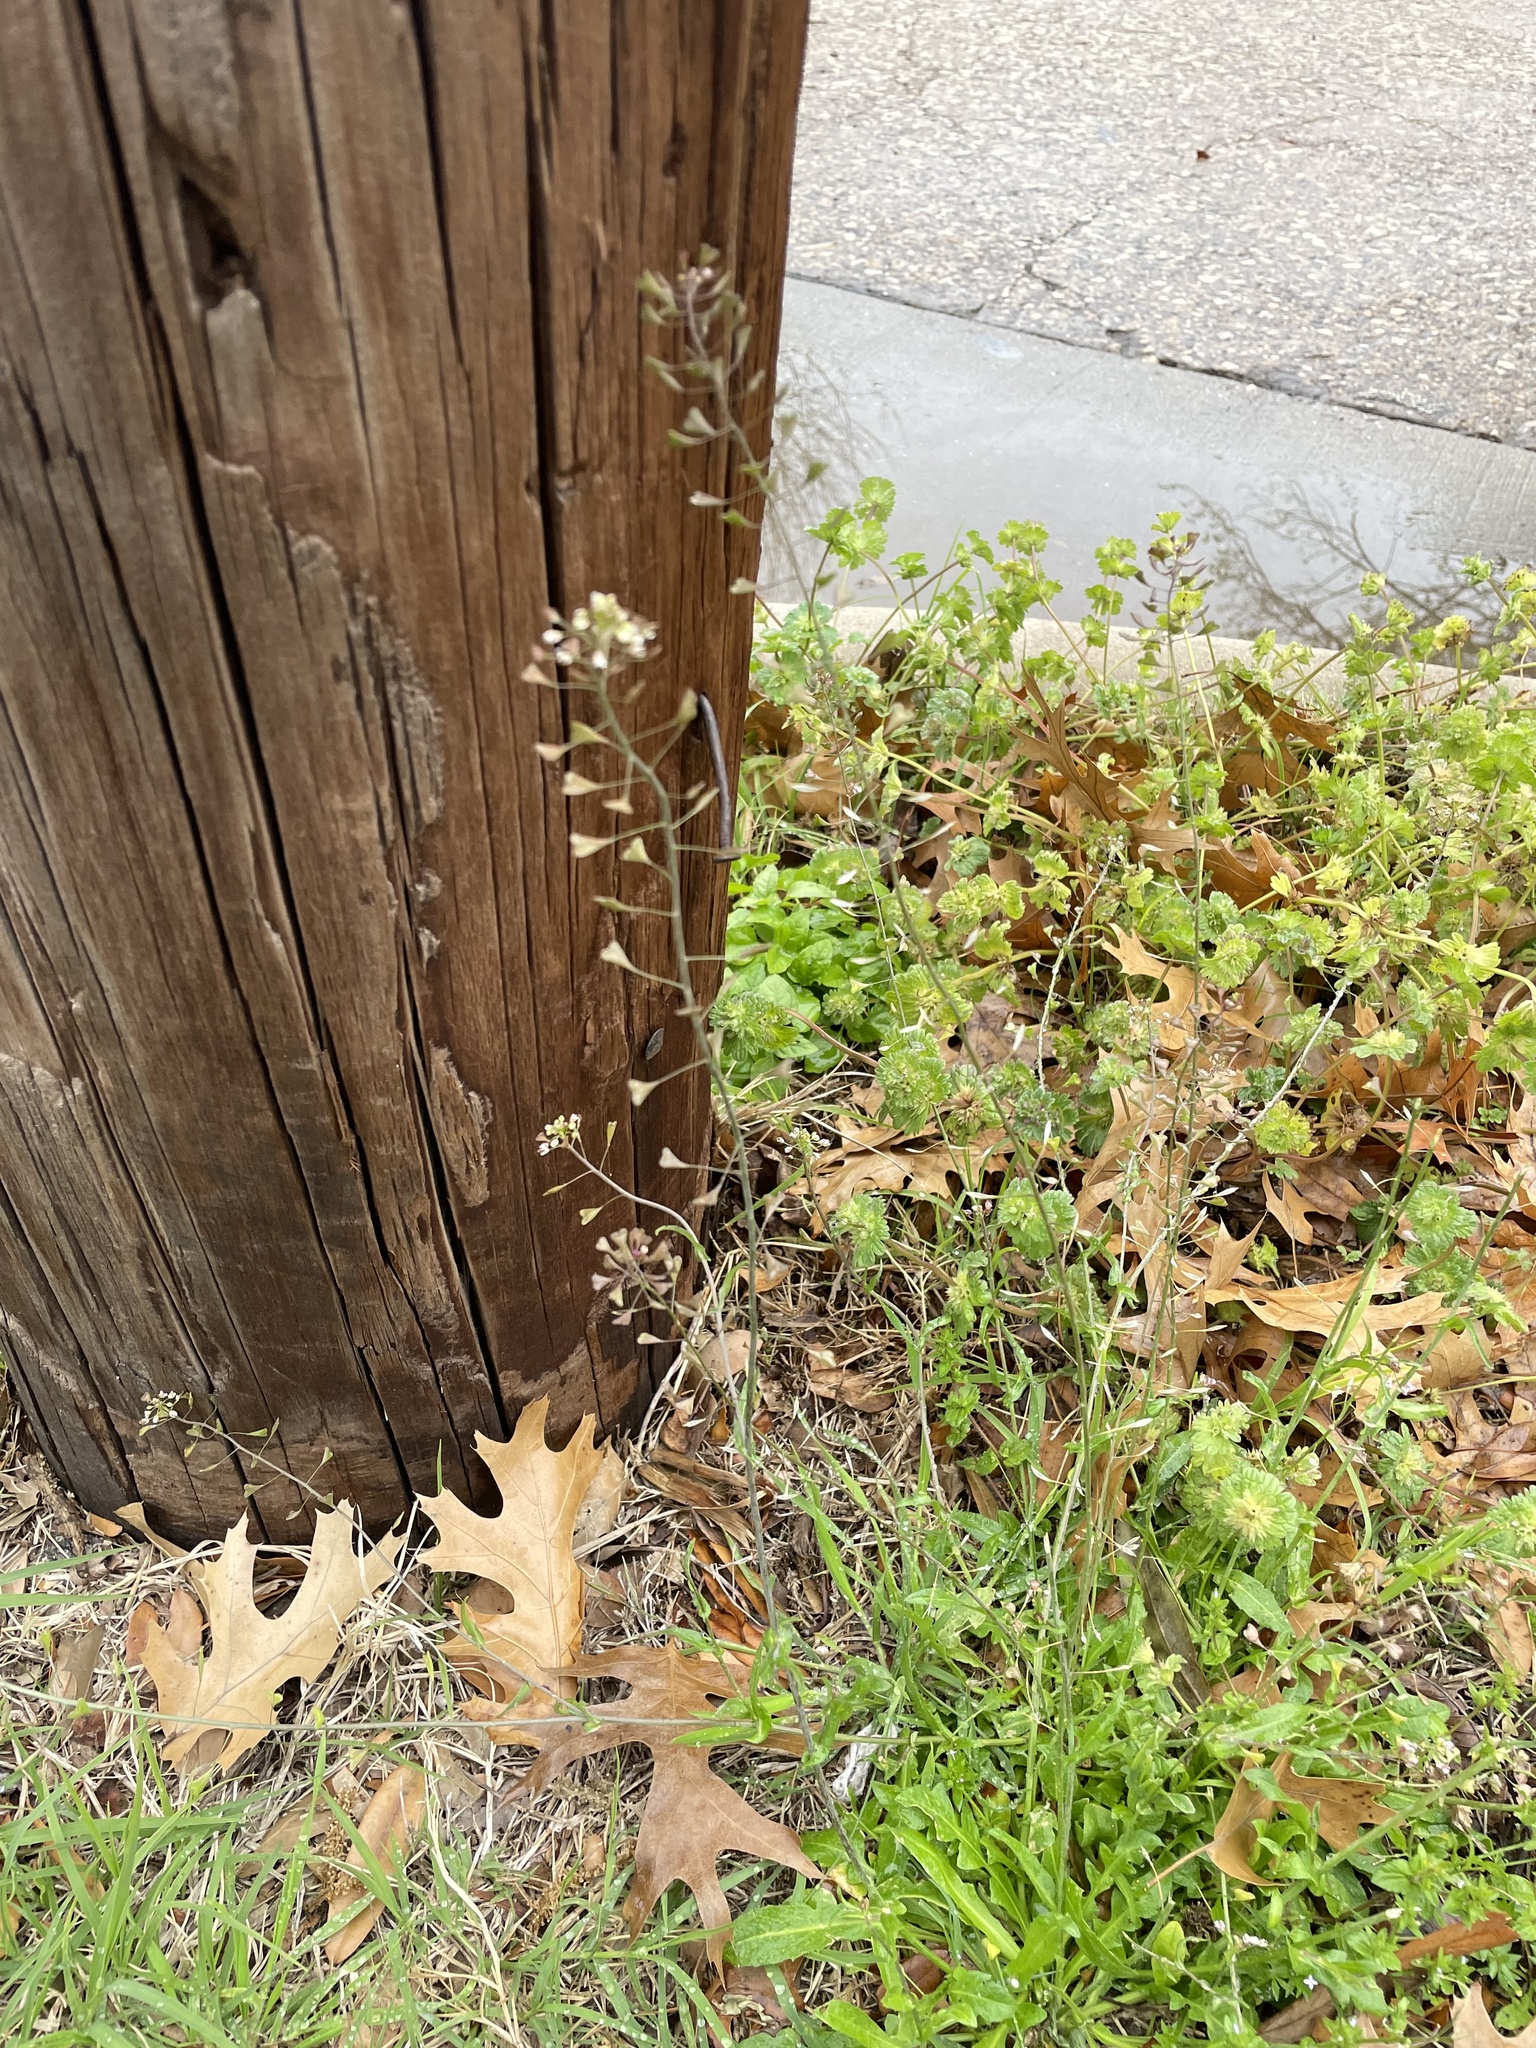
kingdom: Plantae
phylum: Tracheophyta
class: Magnoliopsida
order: Brassicales
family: Brassicaceae
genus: Capsella
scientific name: Capsella bursa-pastoris
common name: Shepherd's purse
